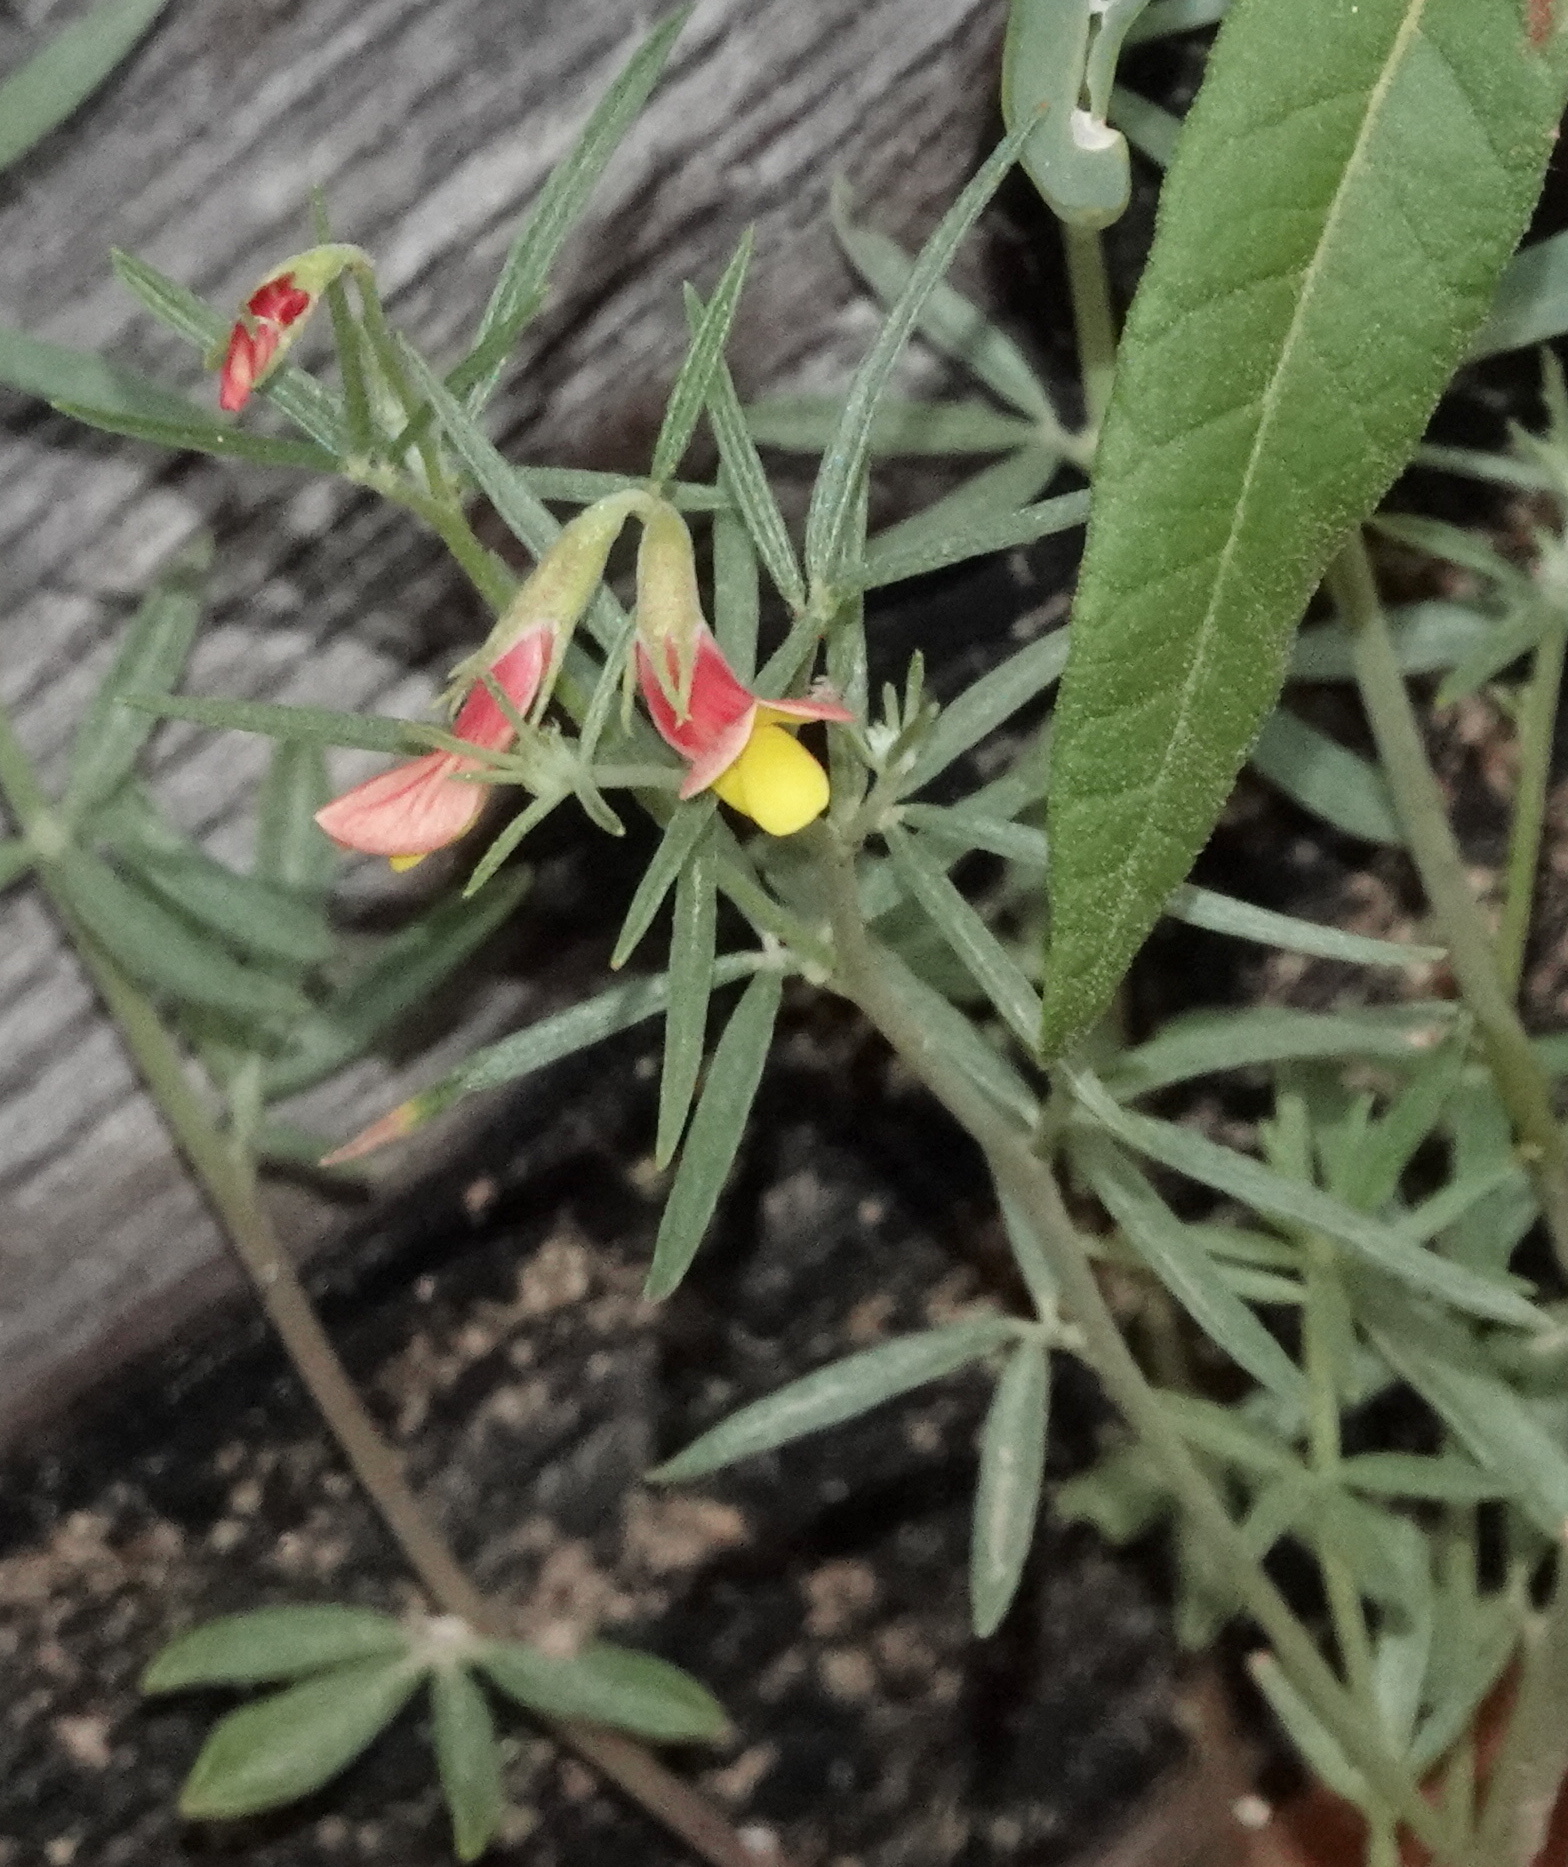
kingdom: Plantae
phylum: Tracheophyta
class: Magnoliopsida
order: Fabales
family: Fabaceae
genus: Acmispon
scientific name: Acmispon oroboides
